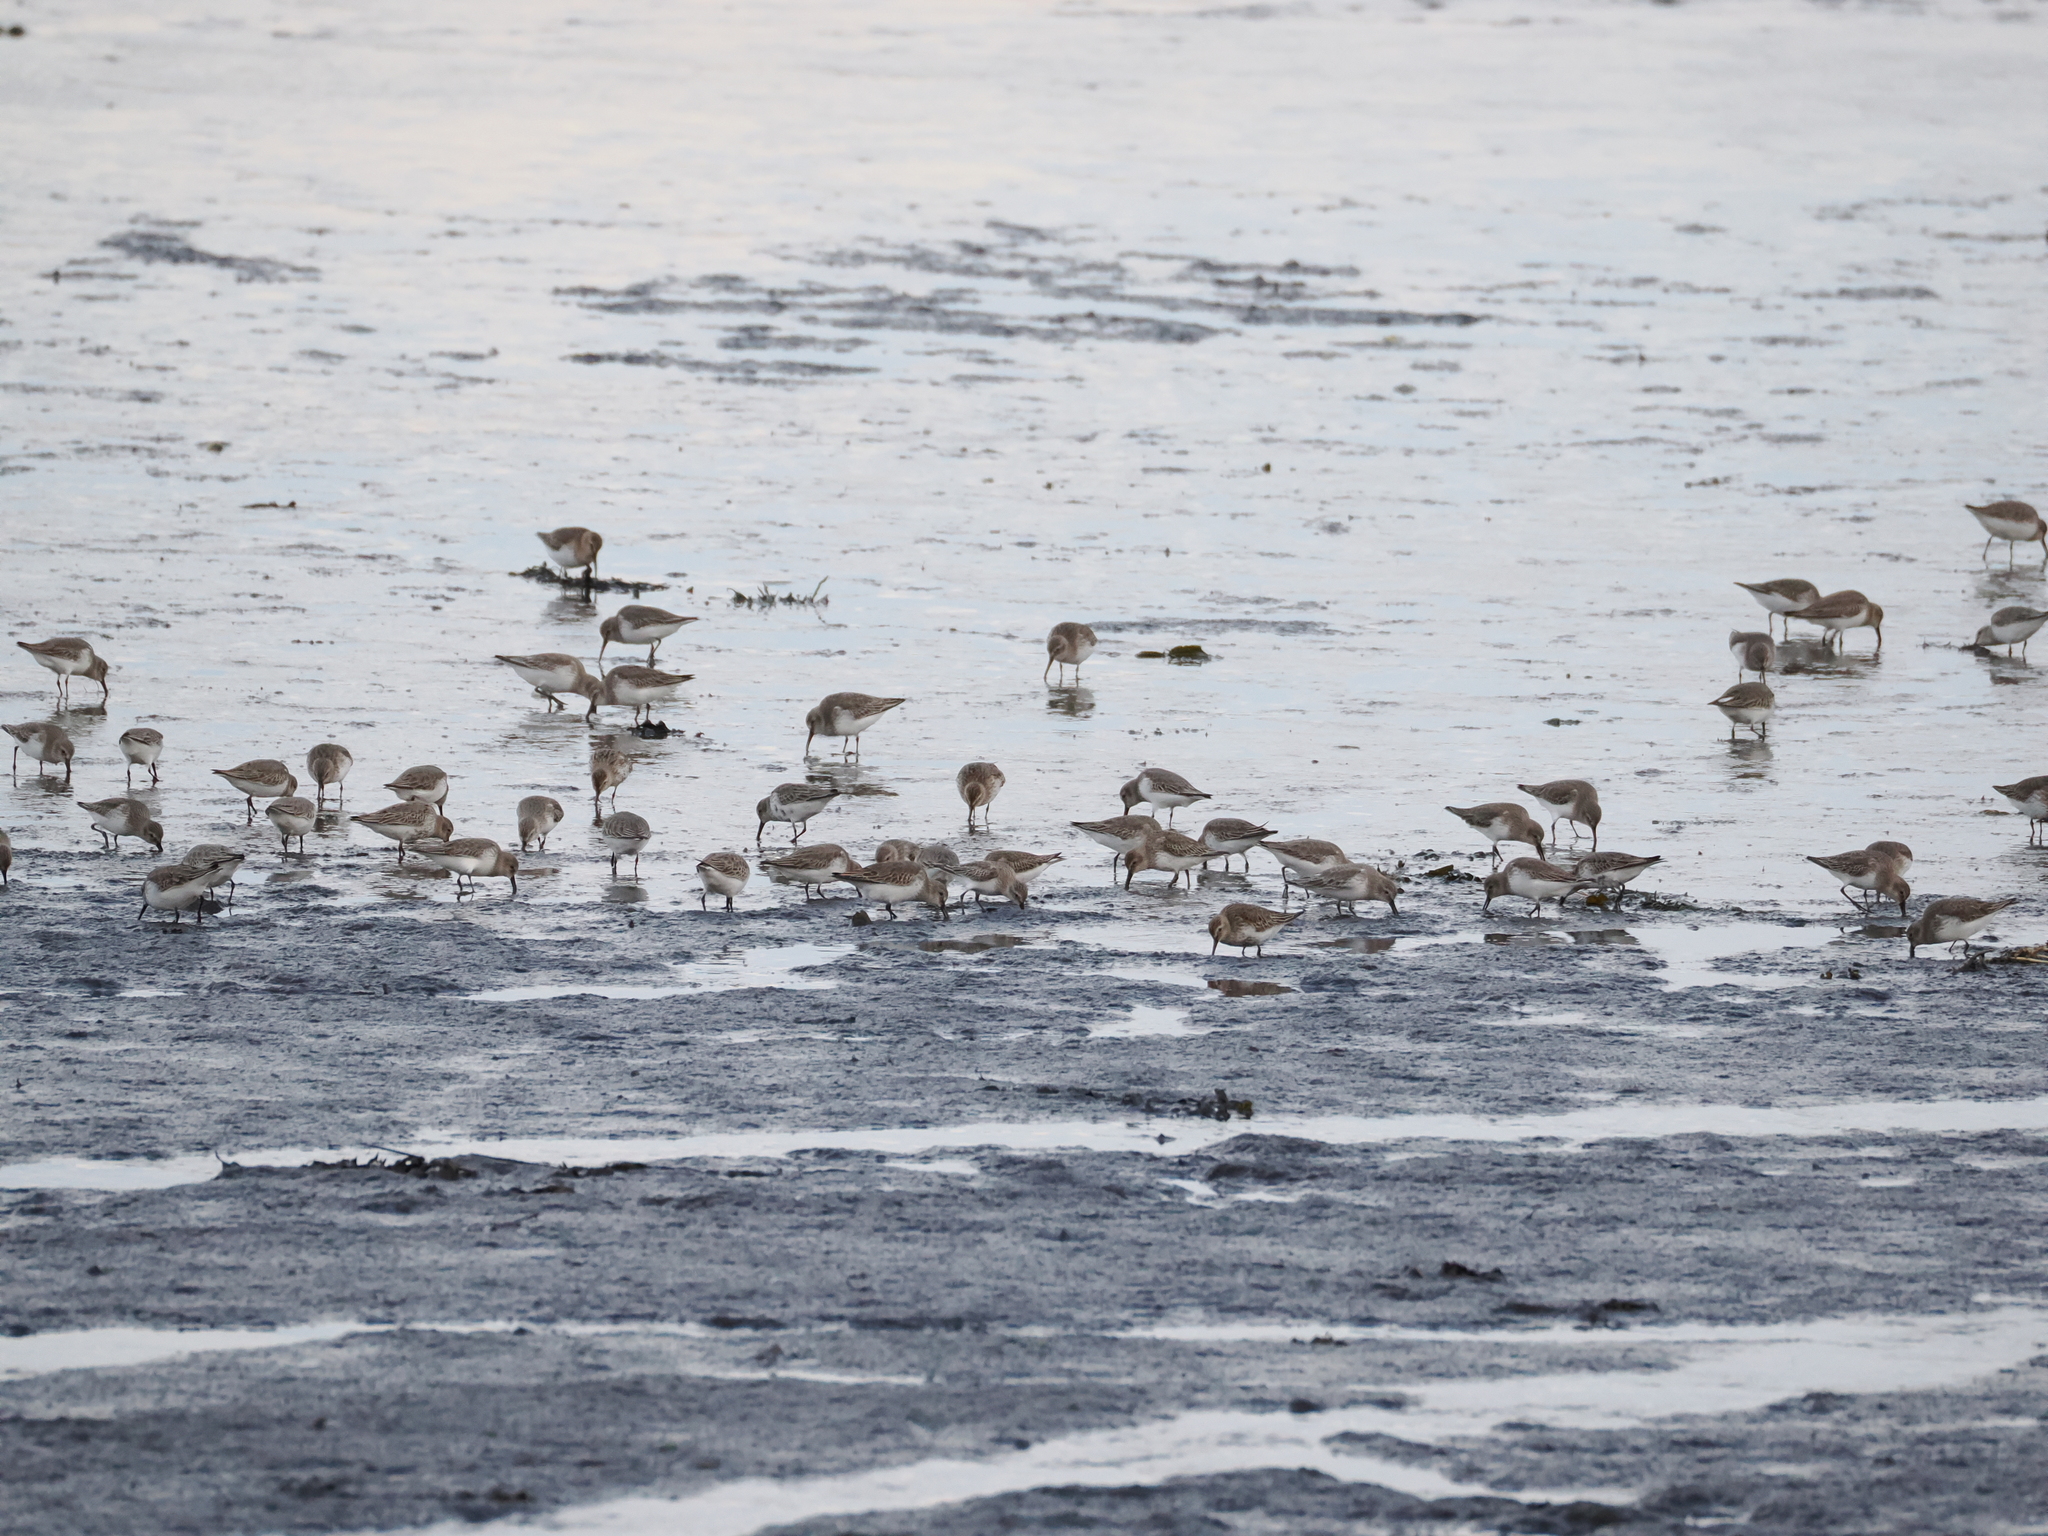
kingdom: Animalia
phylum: Chordata
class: Aves
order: Charadriiformes
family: Scolopacidae
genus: Calidris
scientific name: Calidris alpina
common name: Dunlin
